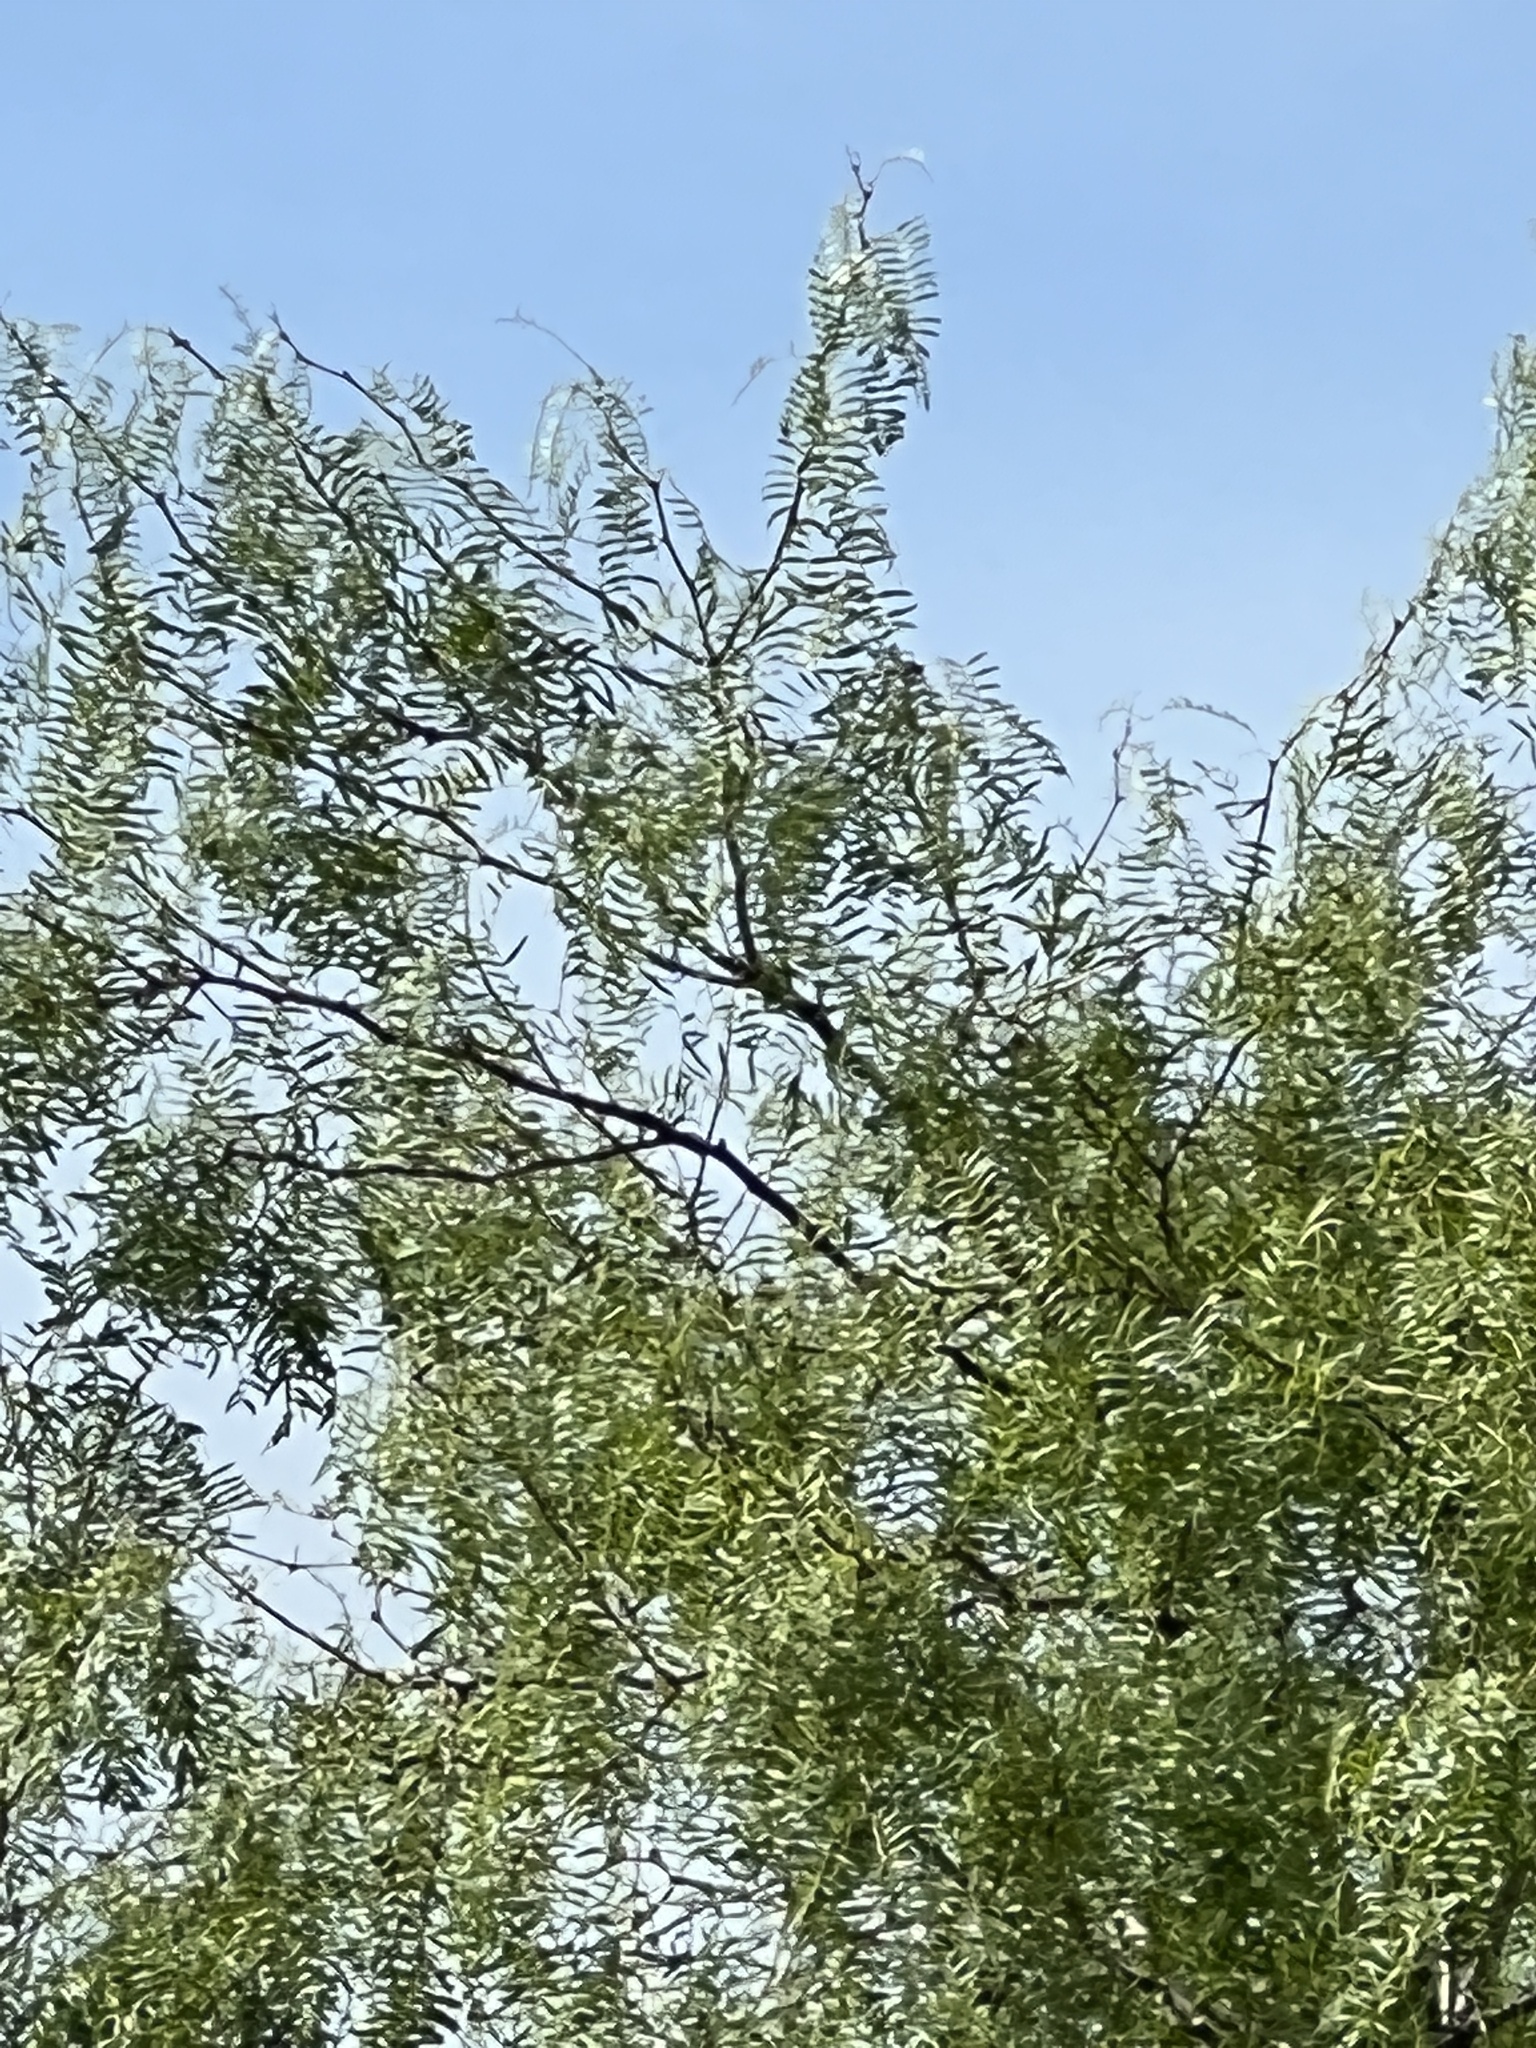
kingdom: Plantae
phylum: Tracheophyta
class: Magnoliopsida
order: Fabales
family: Fabaceae
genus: Prosopis
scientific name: Prosopis glandulosa
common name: Honey mesquite
